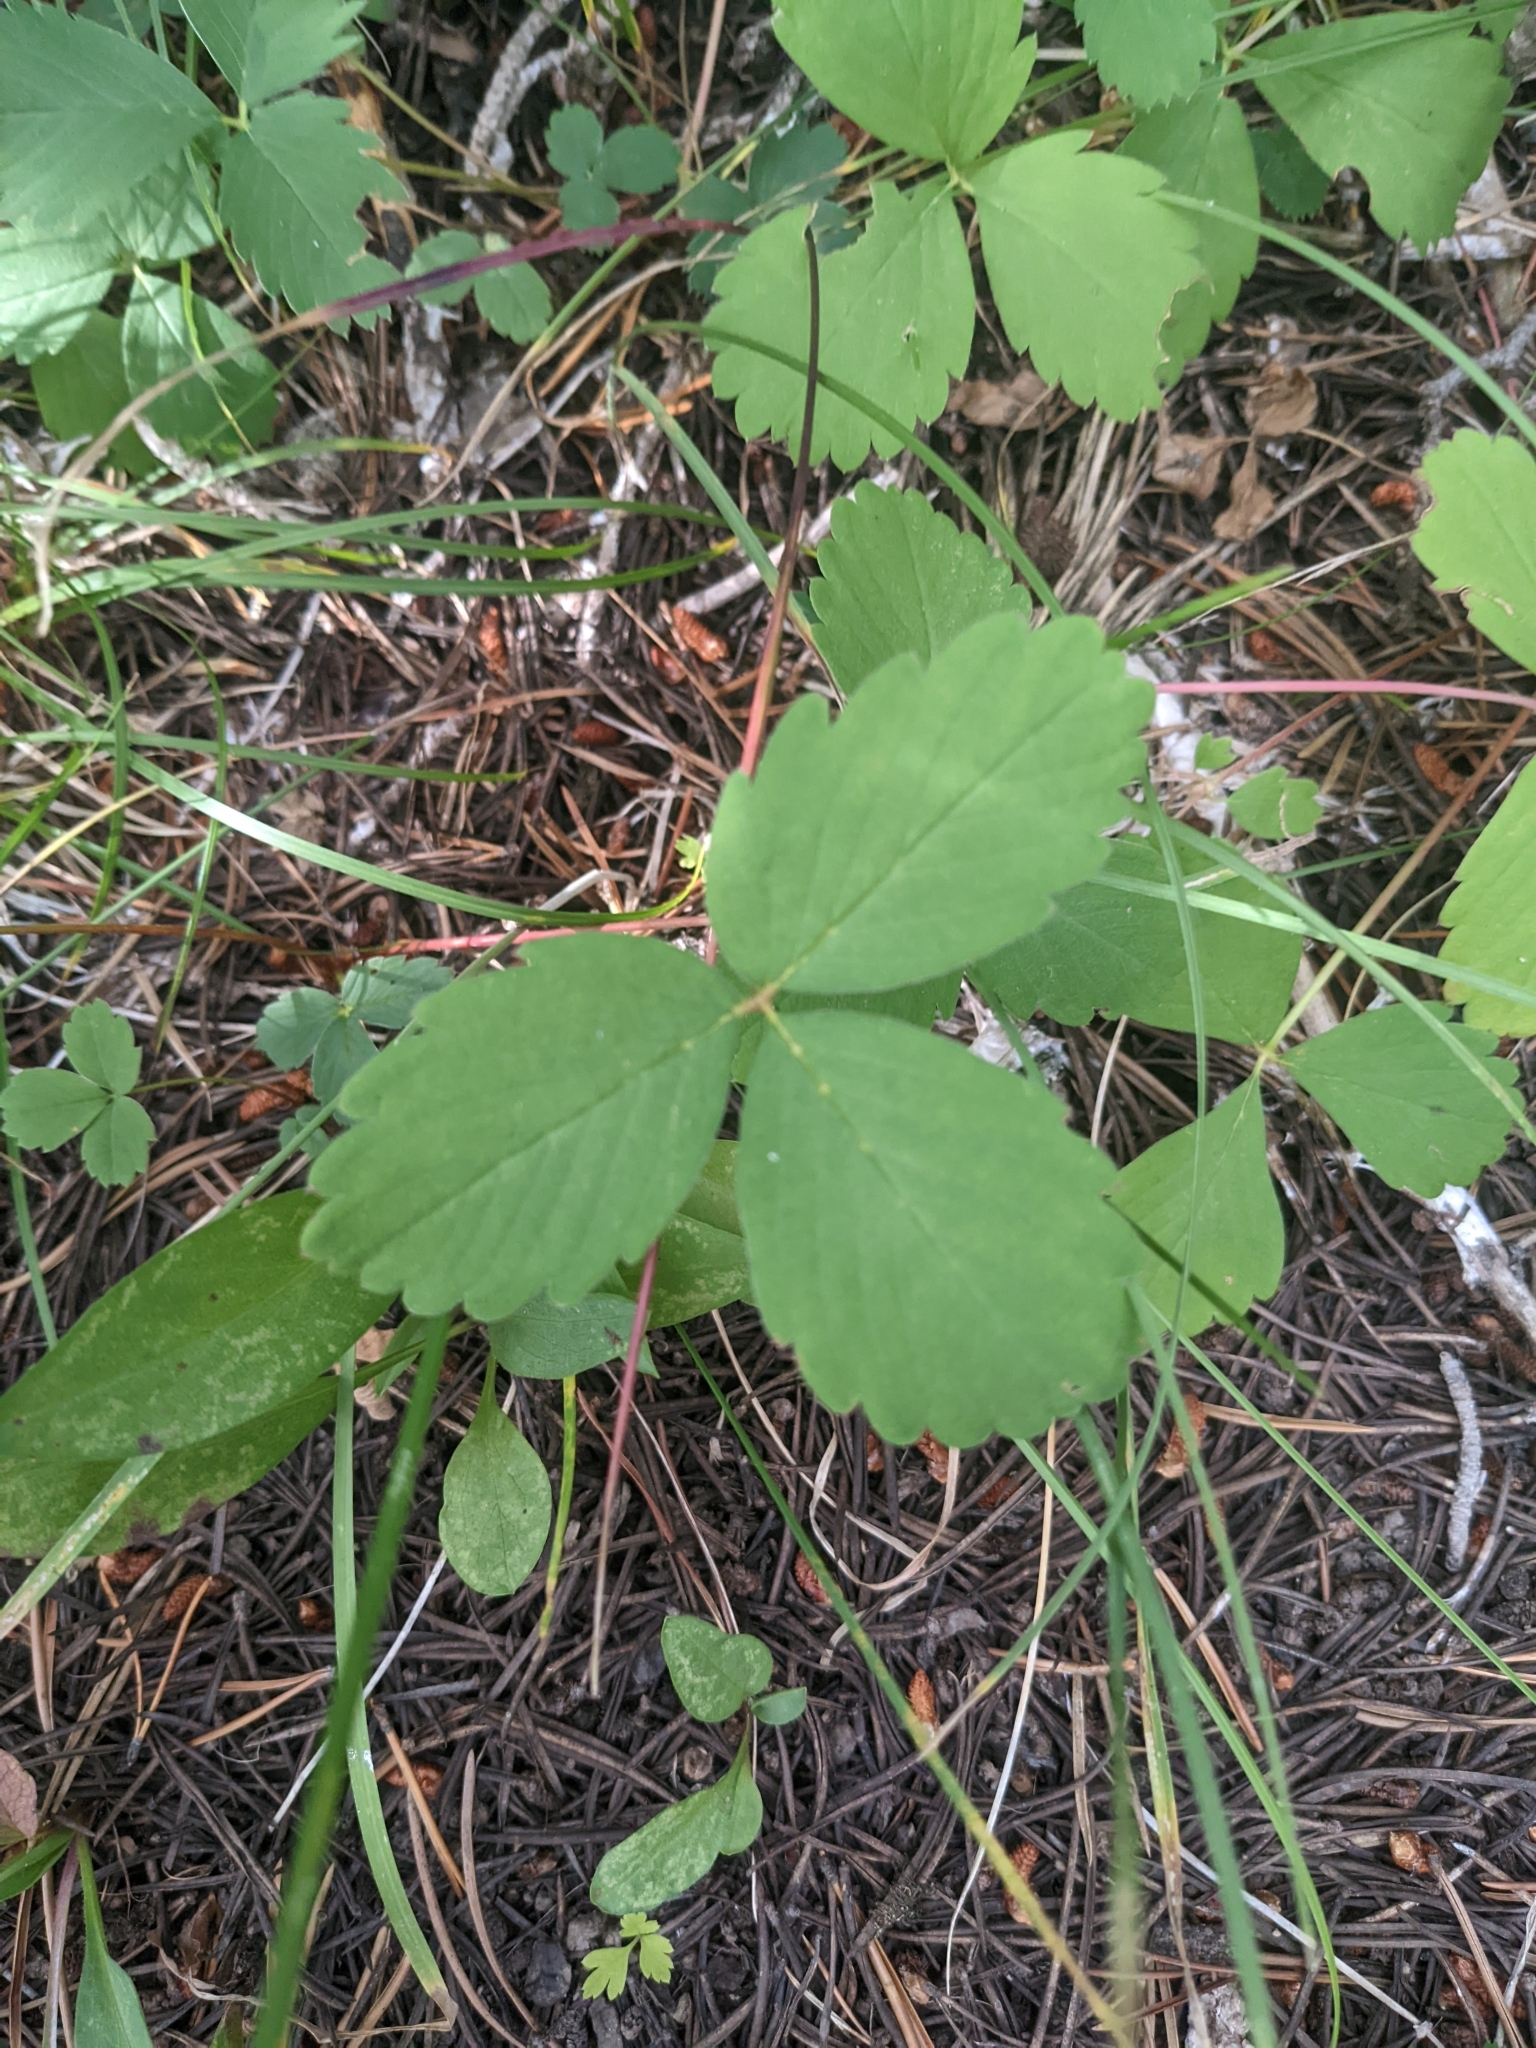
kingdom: Plantae
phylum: Tracheophyta
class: Magnoliopsida
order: Rosales
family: Rosaceae
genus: Fragaria
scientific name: Fragaria virginiana
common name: Thickleaved wild strawberry
